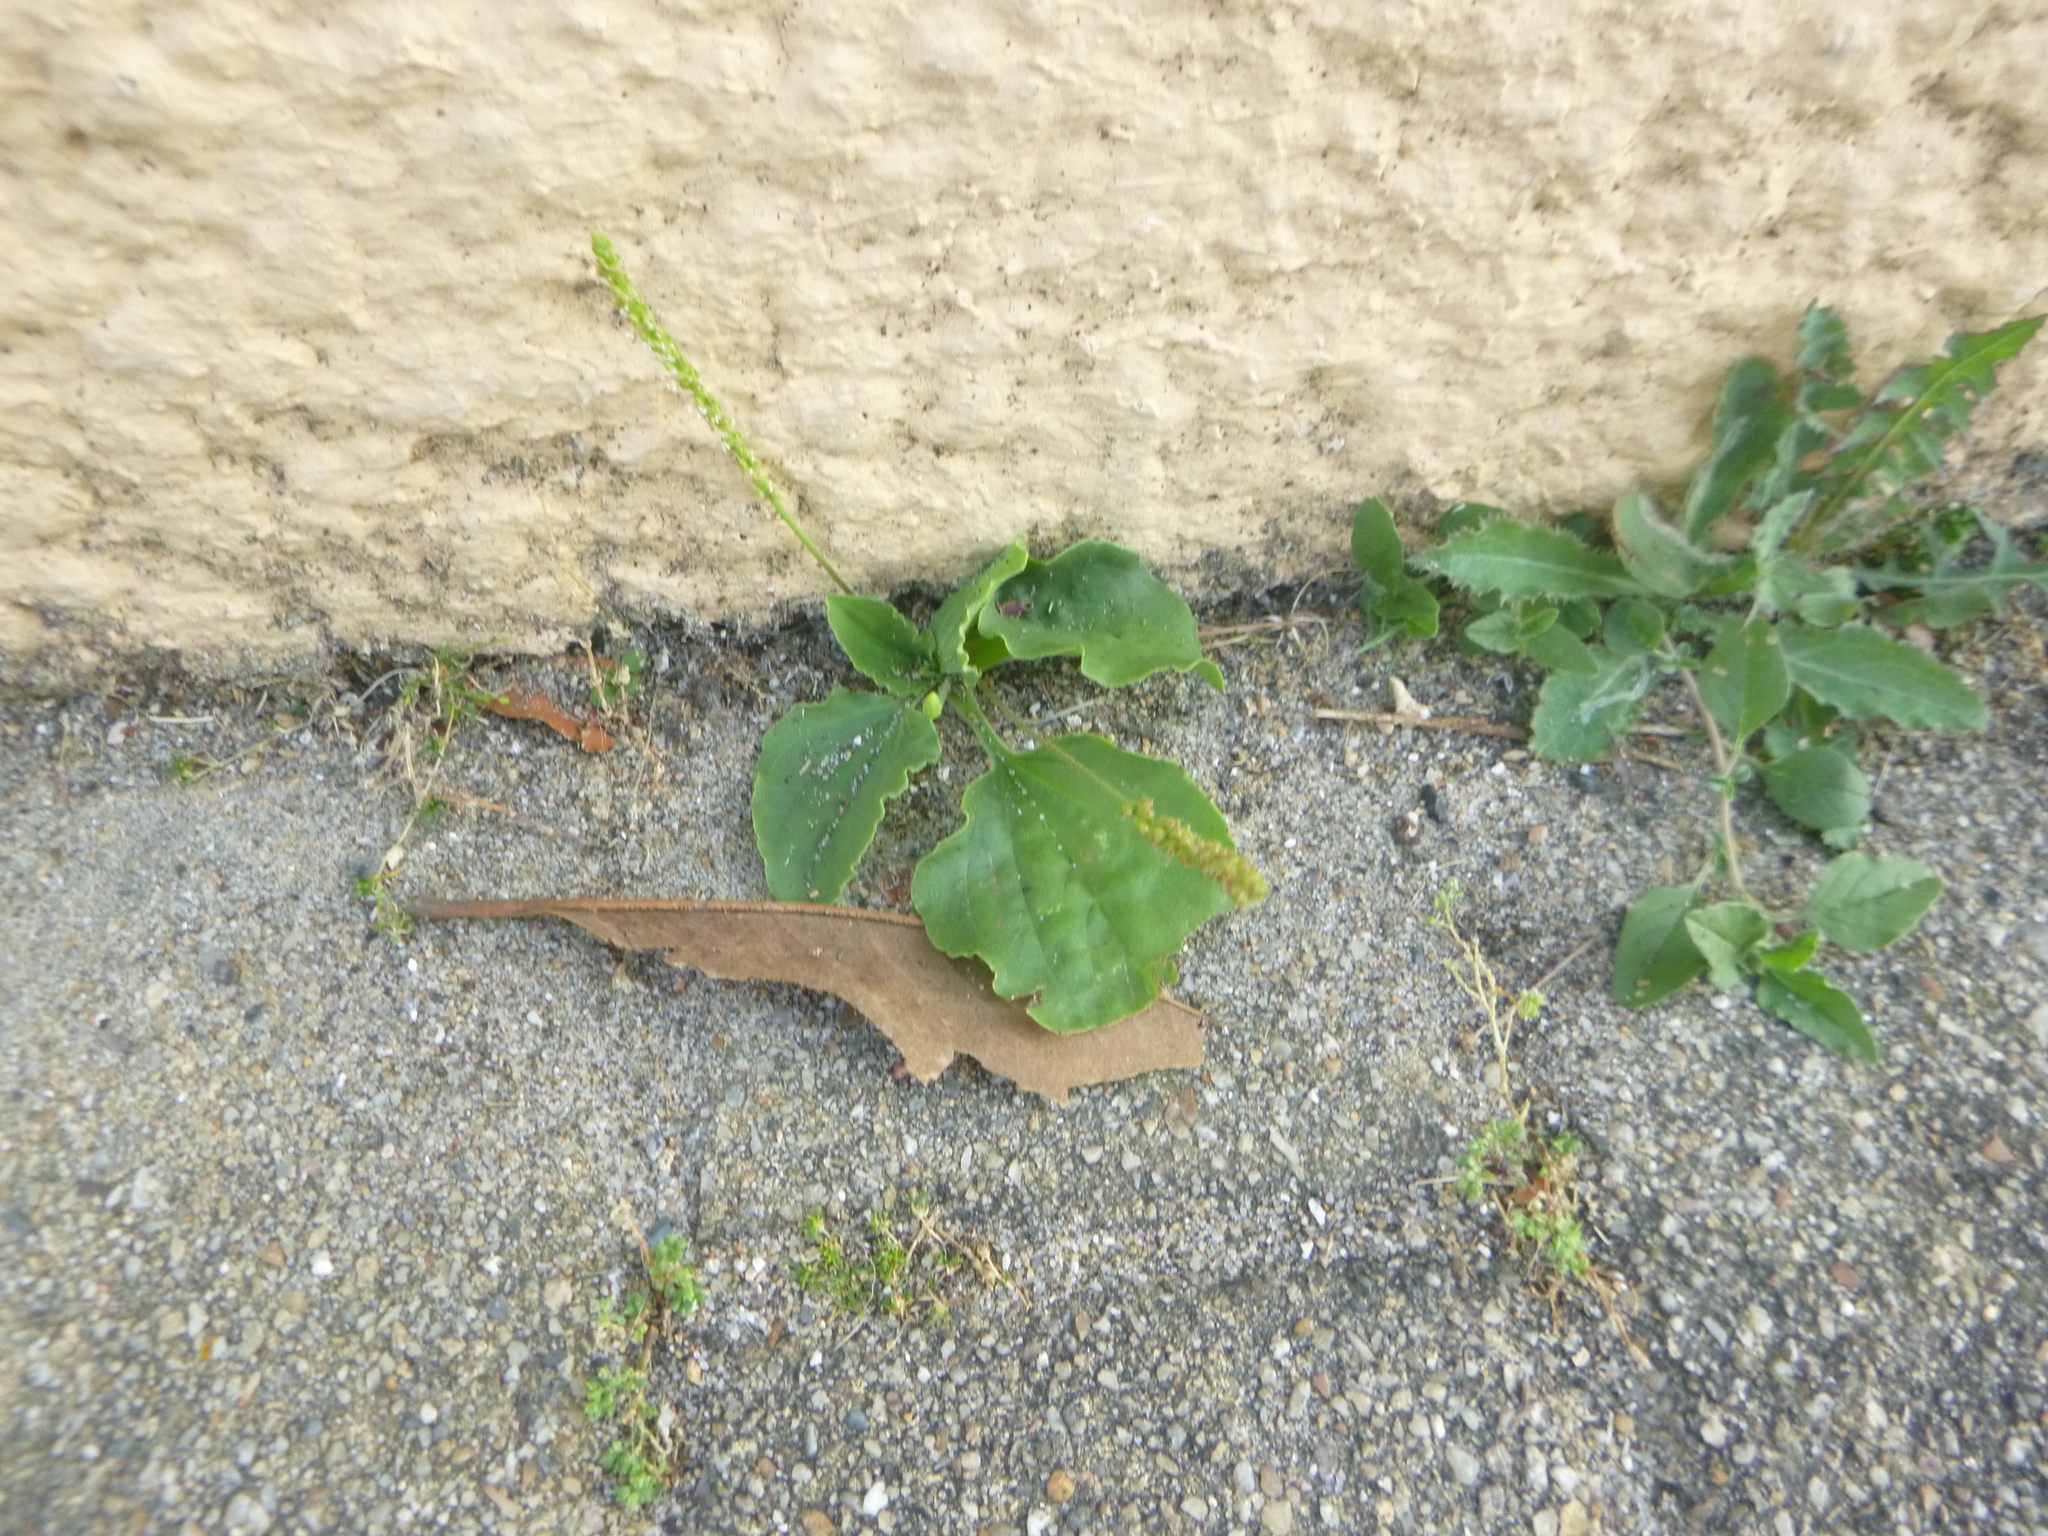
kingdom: Plantae
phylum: Tracheophyta
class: Magnoliopsida
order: Lamiales
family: Plantaginaceae
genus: Plantago
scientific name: Plantago major
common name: Common plantain
